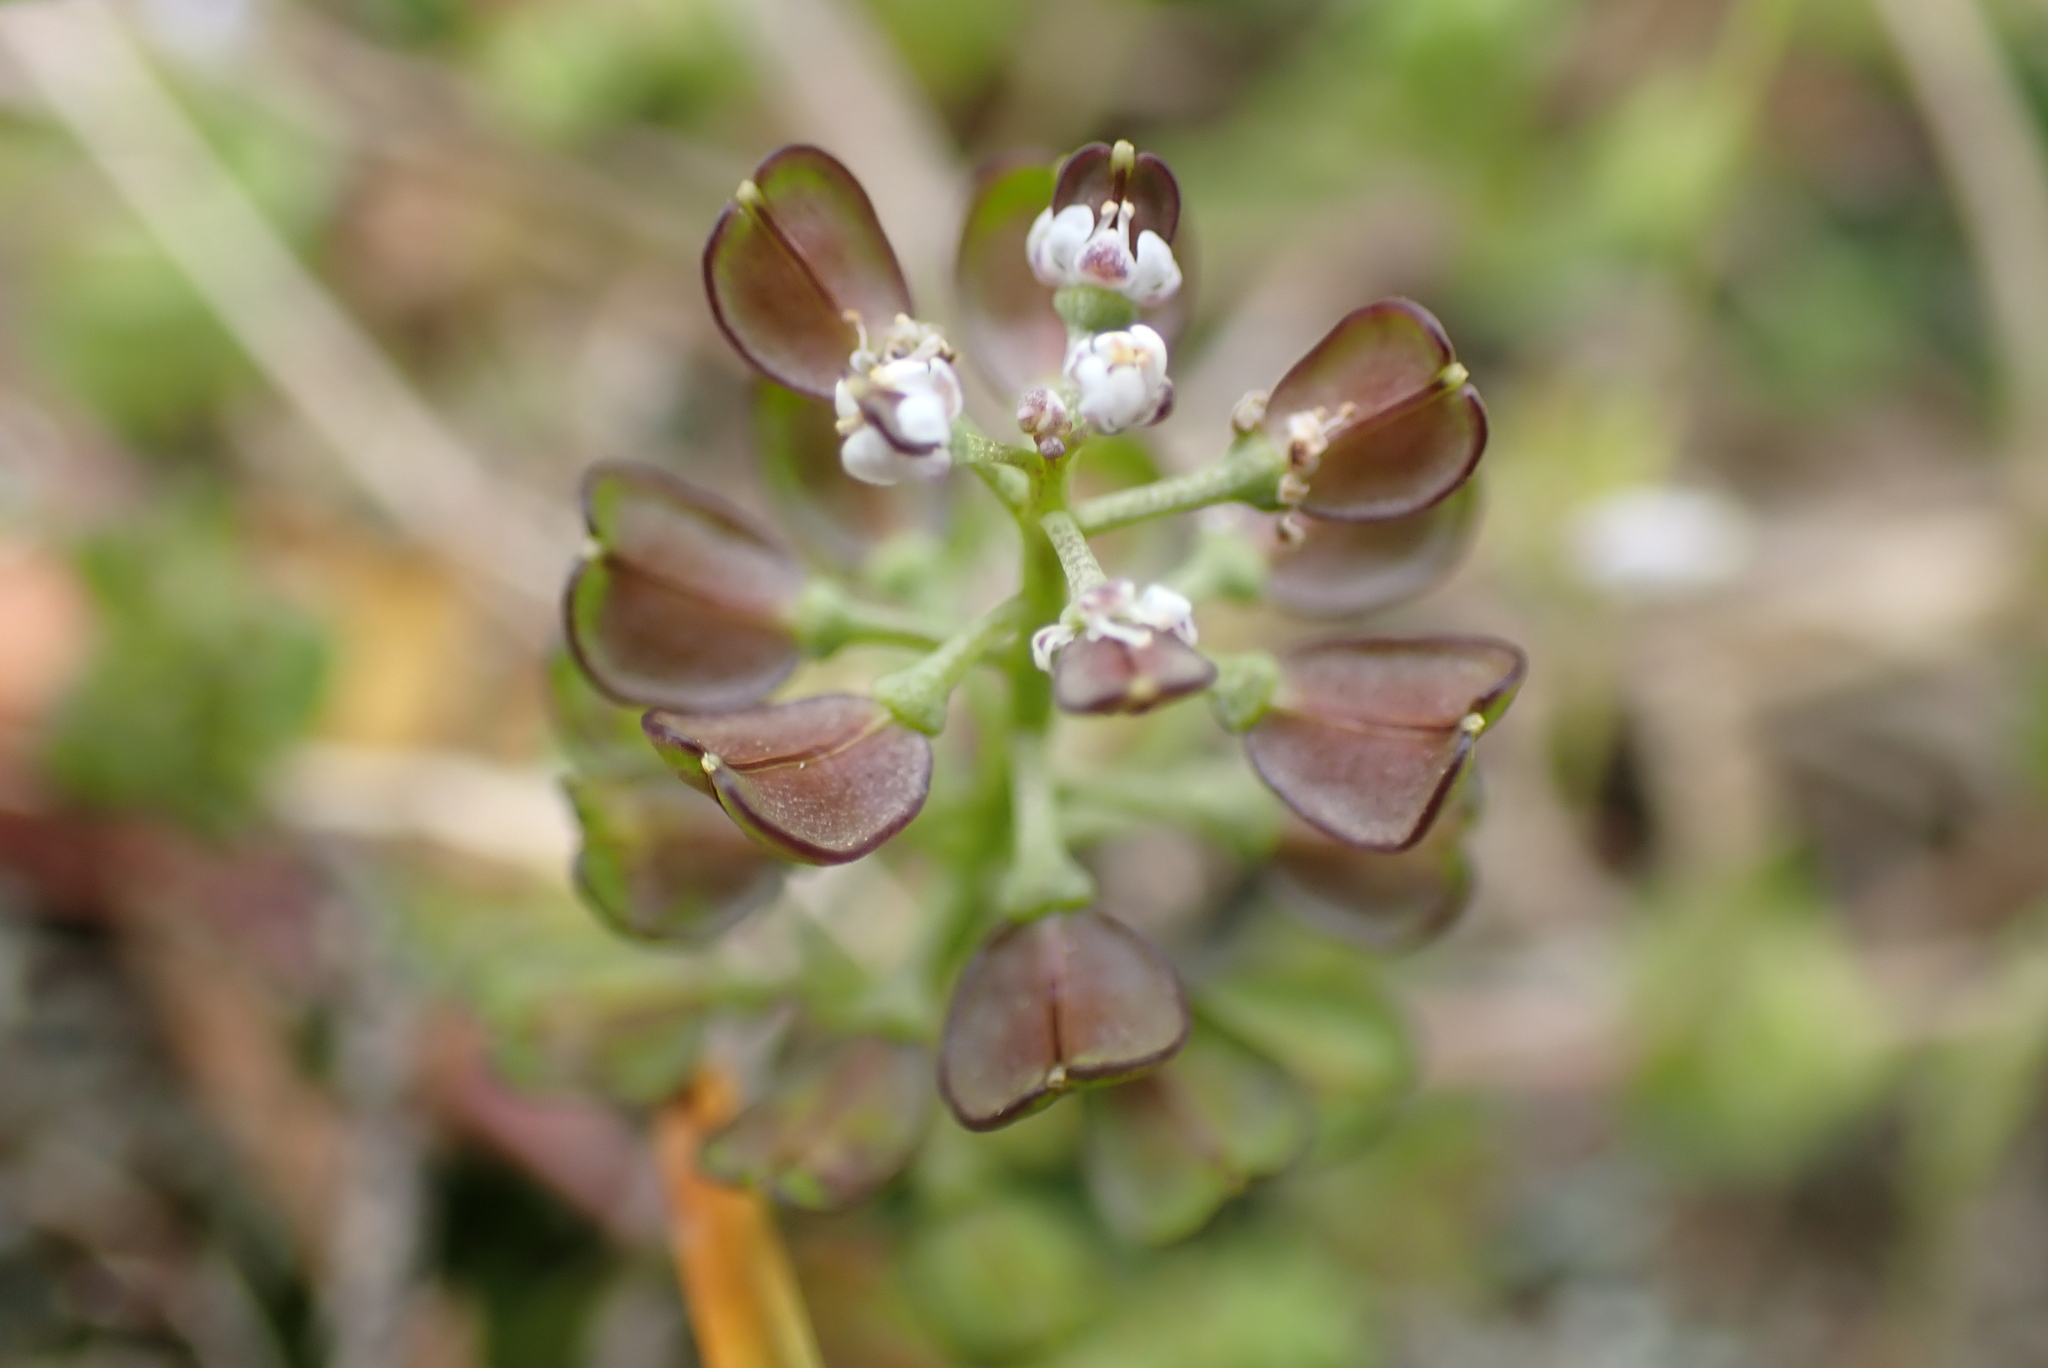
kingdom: Plantae
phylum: Tracheophyta
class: Magnoliopsida
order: Brassicales
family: Brassicaceae
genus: Teesdalia
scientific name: Teesdalia nudicaulis
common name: Shepherd's cress
